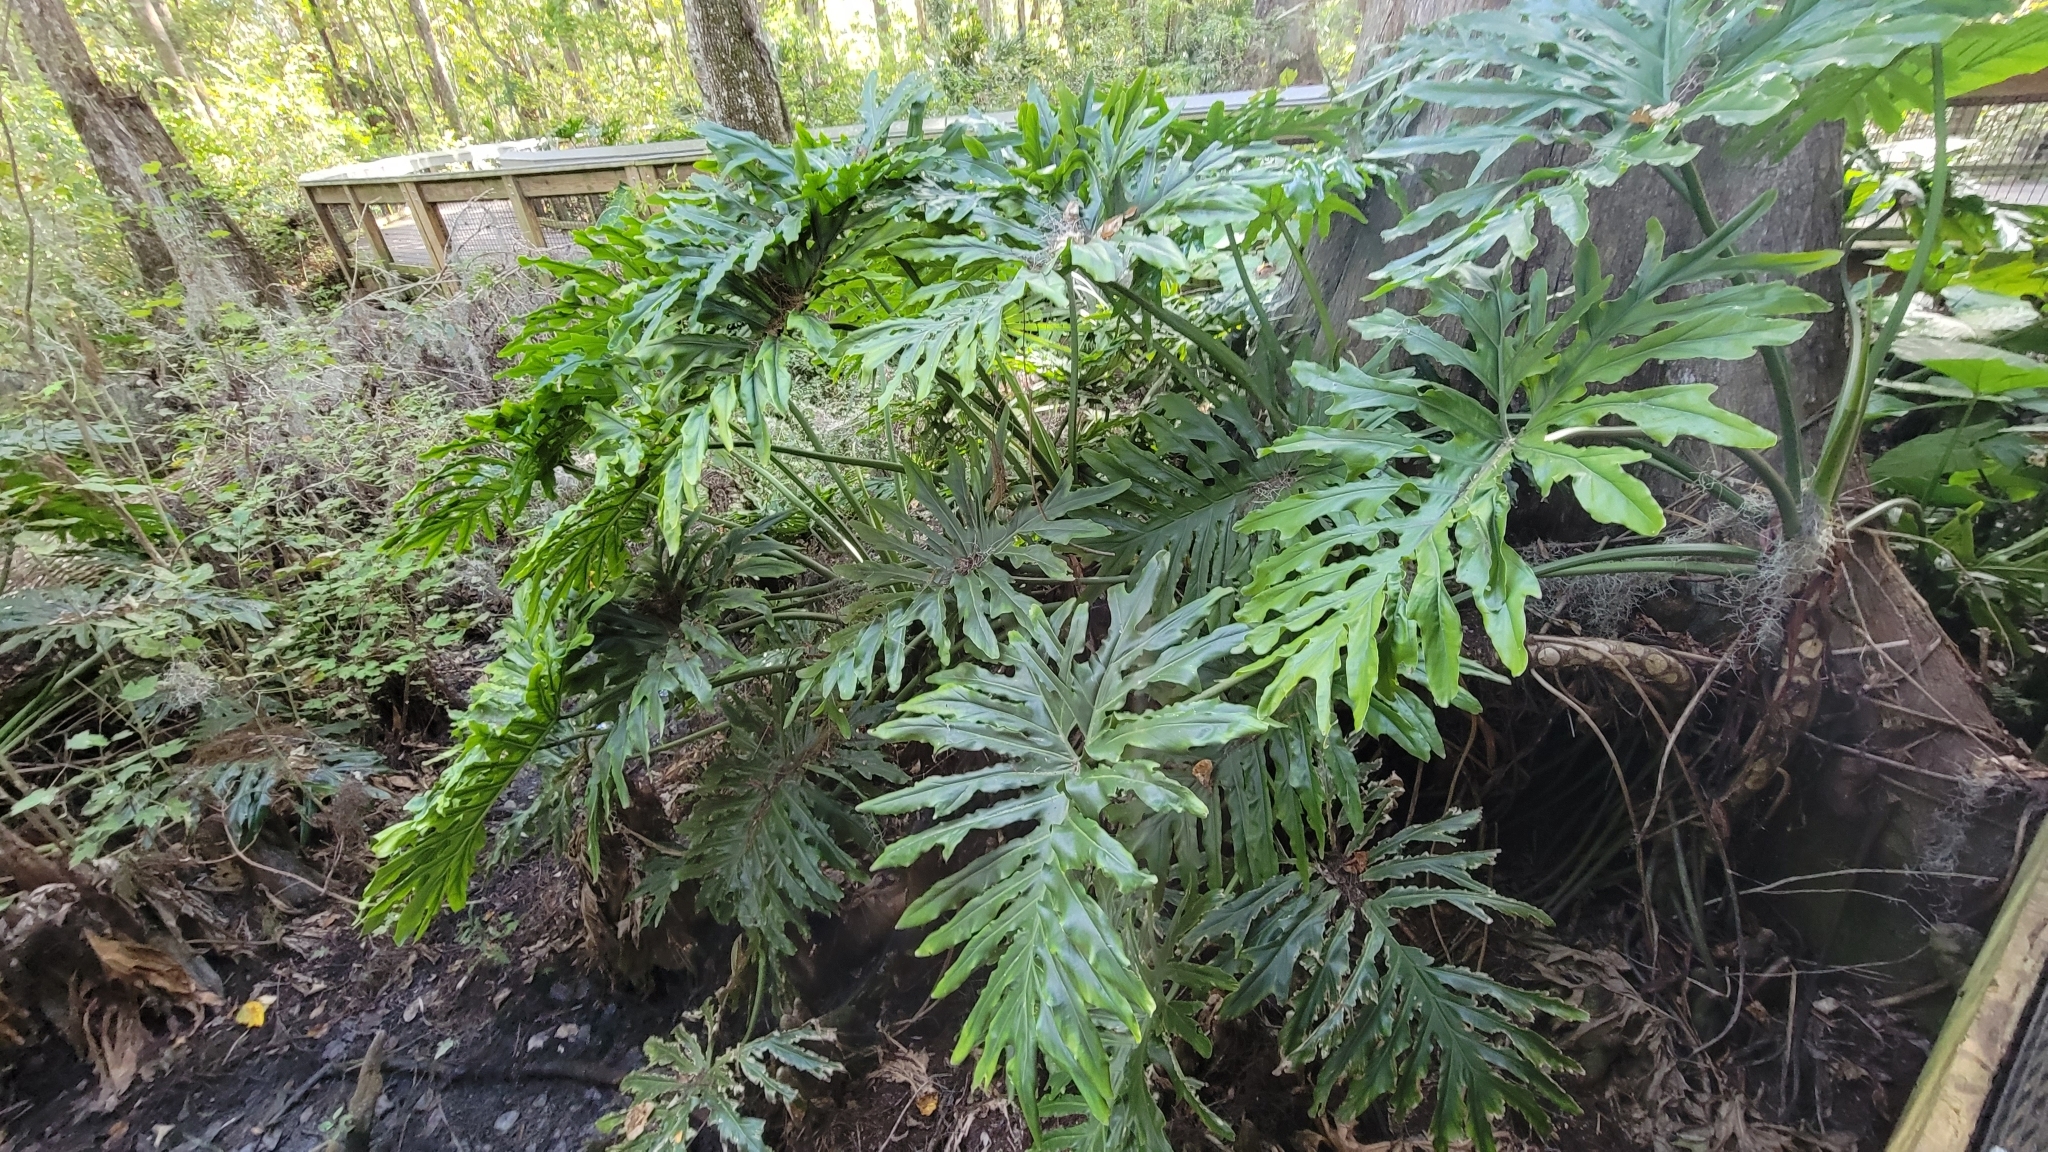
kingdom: Plantae
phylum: Tracheophyta
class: Liliopsida
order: Alismatales
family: Araceae
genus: Thaumatophyllum
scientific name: Thaumatophyllum bipinnatifidum
